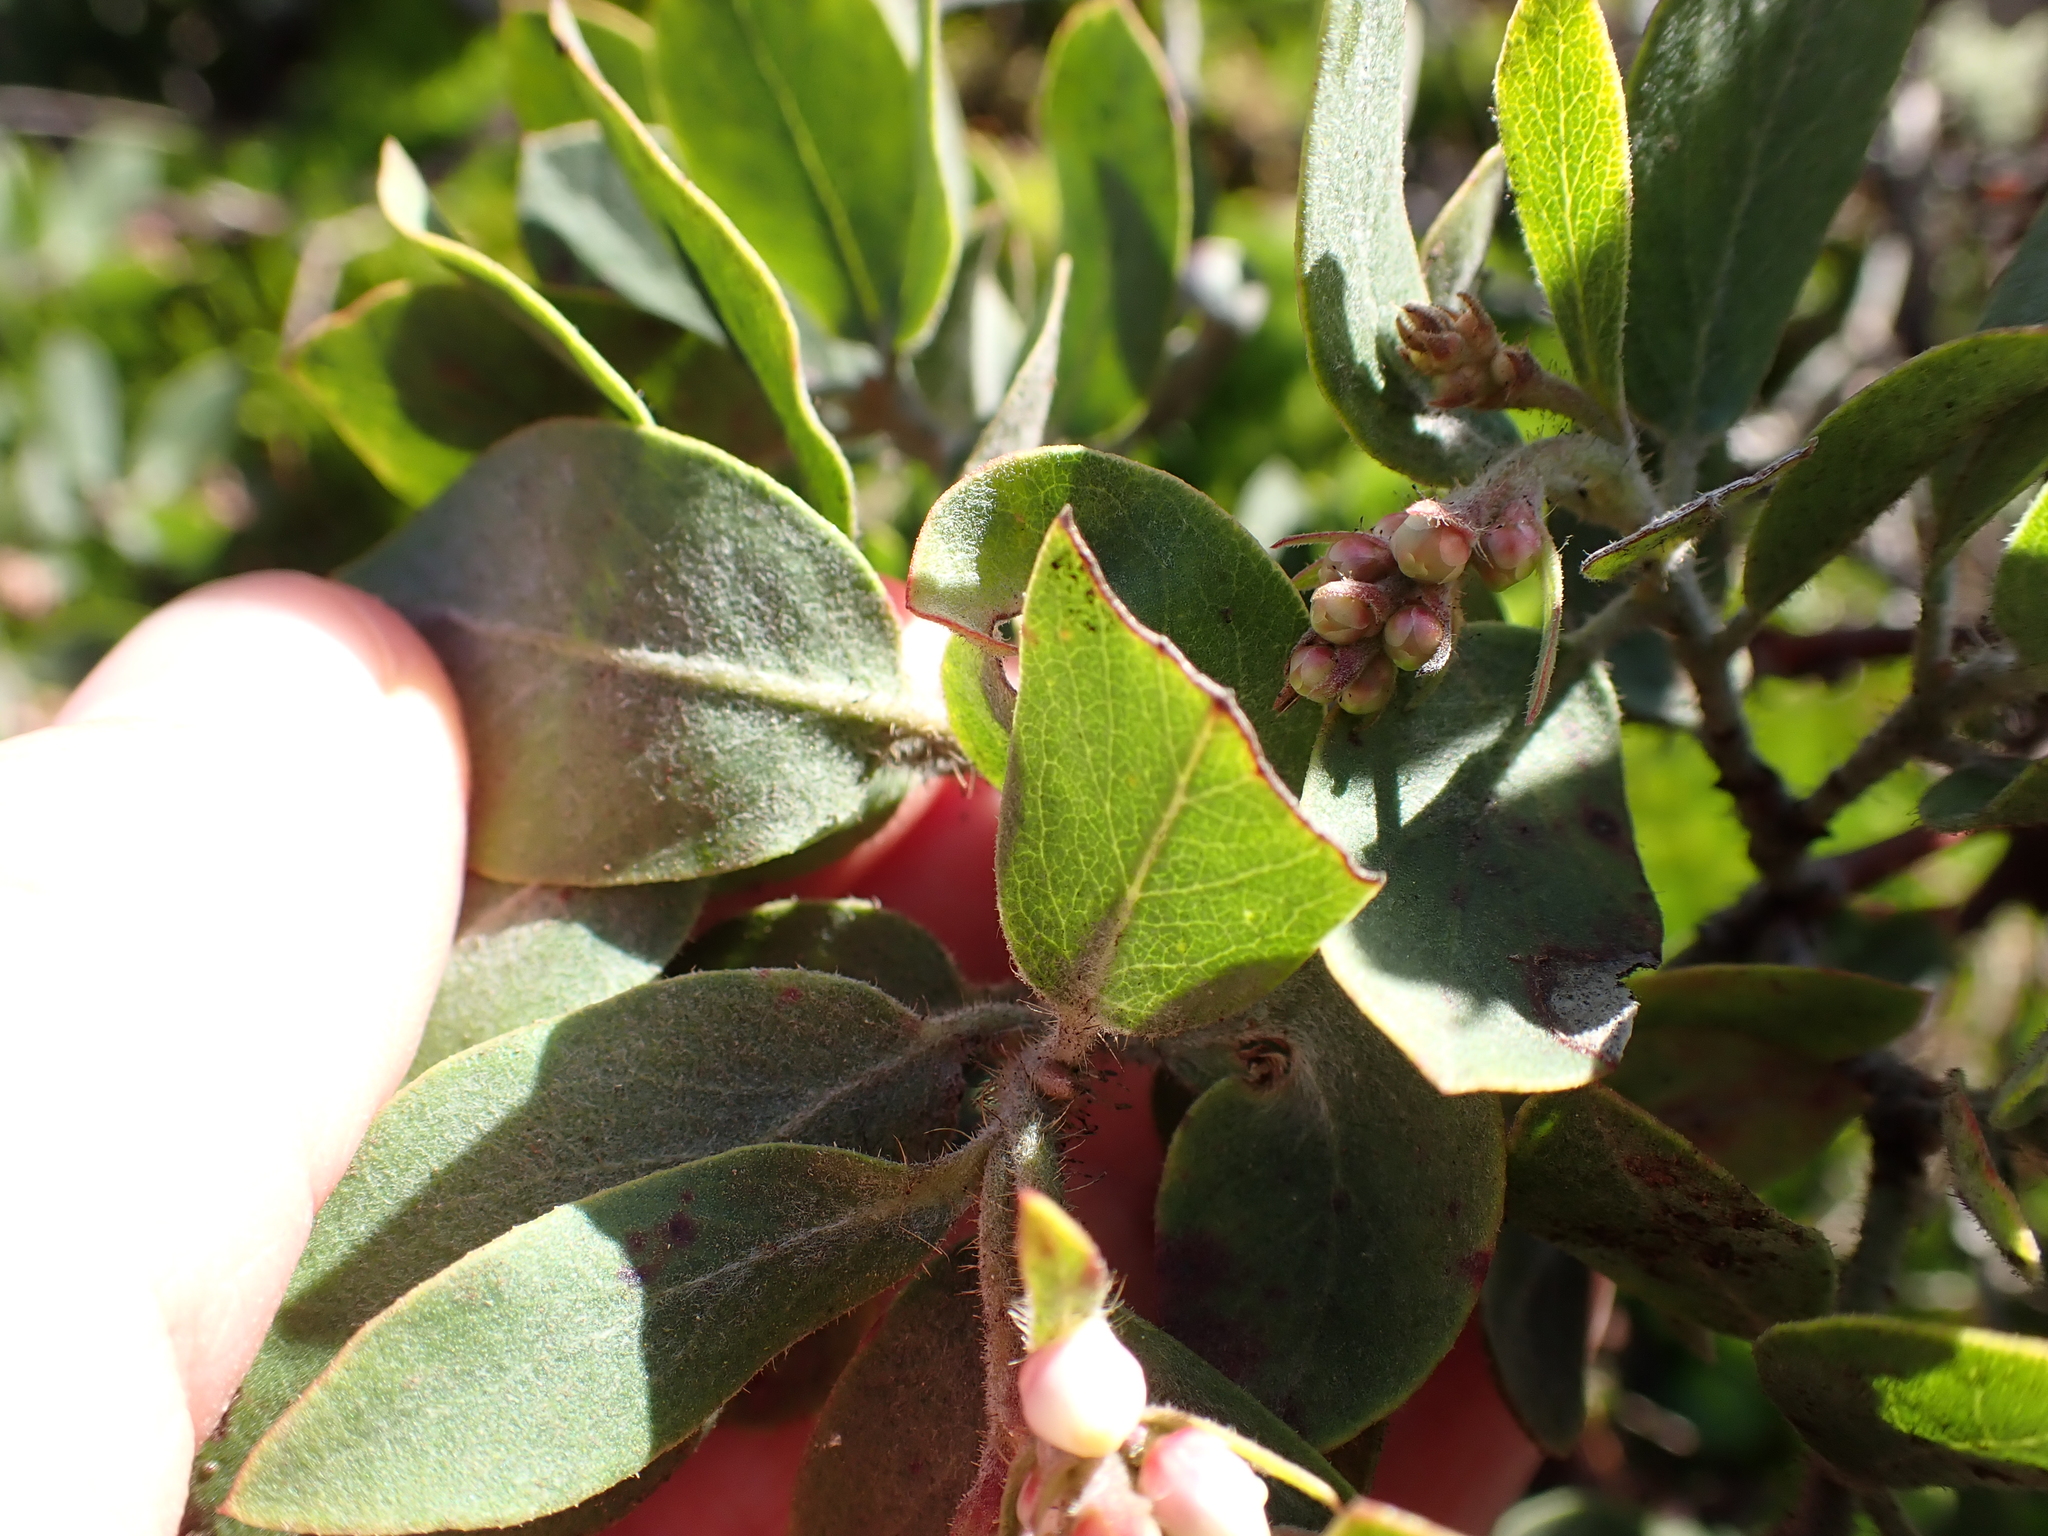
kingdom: Plantae
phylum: Tracheophyta
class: Magnoliopsida
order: Ericales
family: Ericaceae
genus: Arctostaphylos
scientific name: Arctostaphylos columbiana
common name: Bristly bearberry
